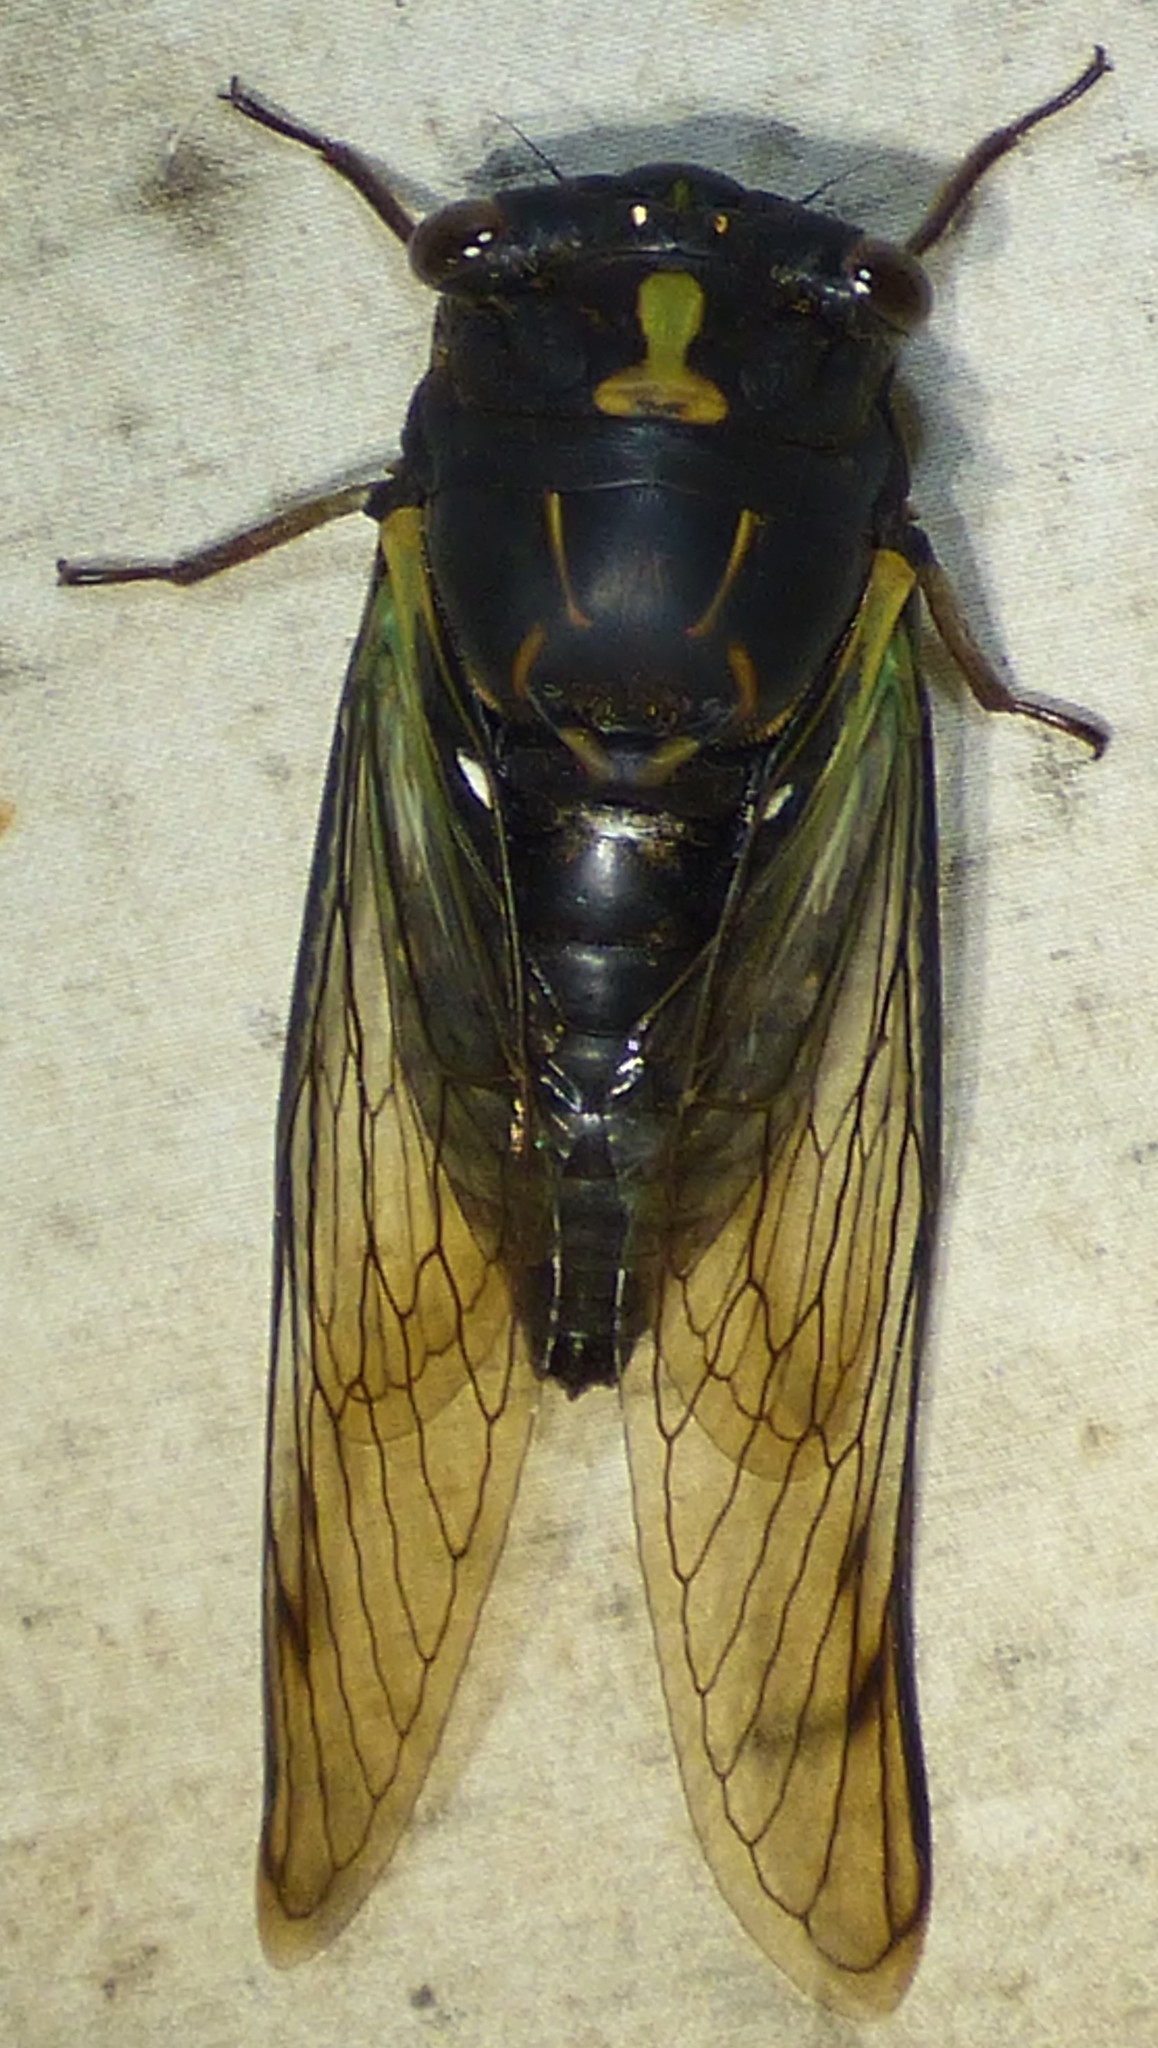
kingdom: Animalia
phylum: Arthropoda
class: Insecta
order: Hemiptera
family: Cicadidae
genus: Neotibicen
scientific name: Neotibicen lyricen
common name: Lyric cicada
